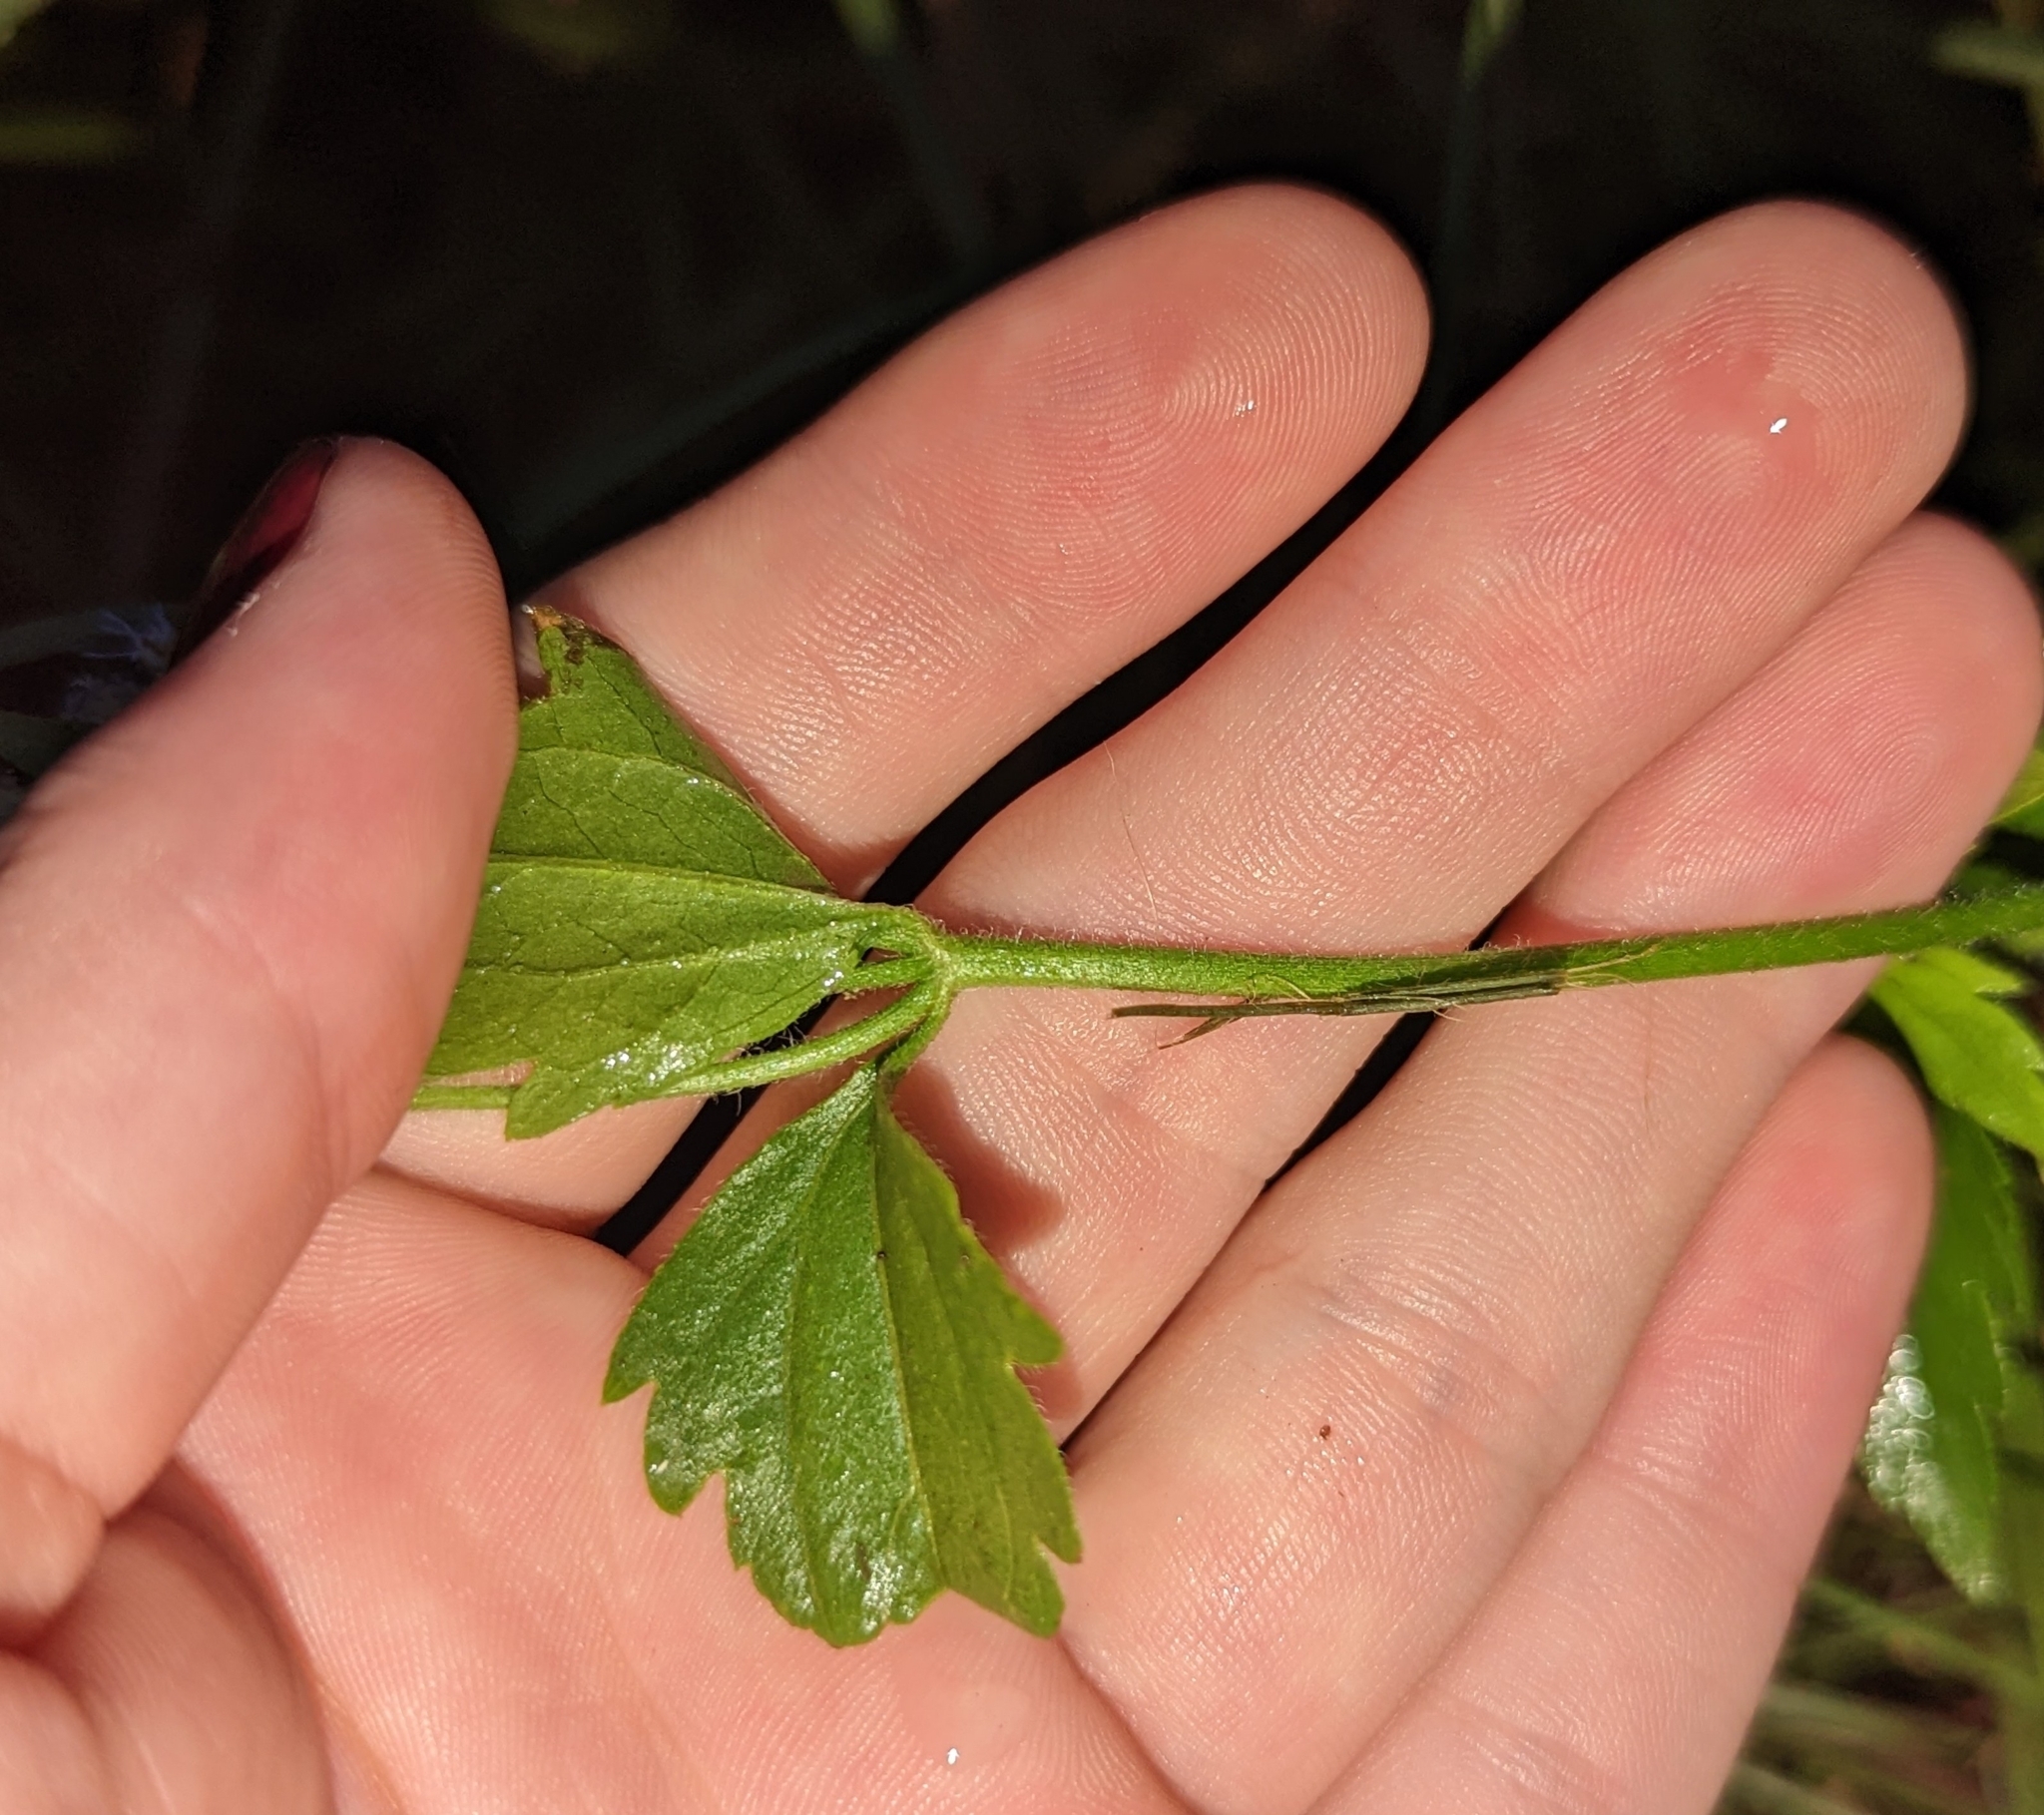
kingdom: Plantae
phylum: Tracheophyta
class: Magnoliopsida
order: Asterales
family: Asteraceae
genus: Praxelis
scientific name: Praxelis clematidea
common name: Praxelis
